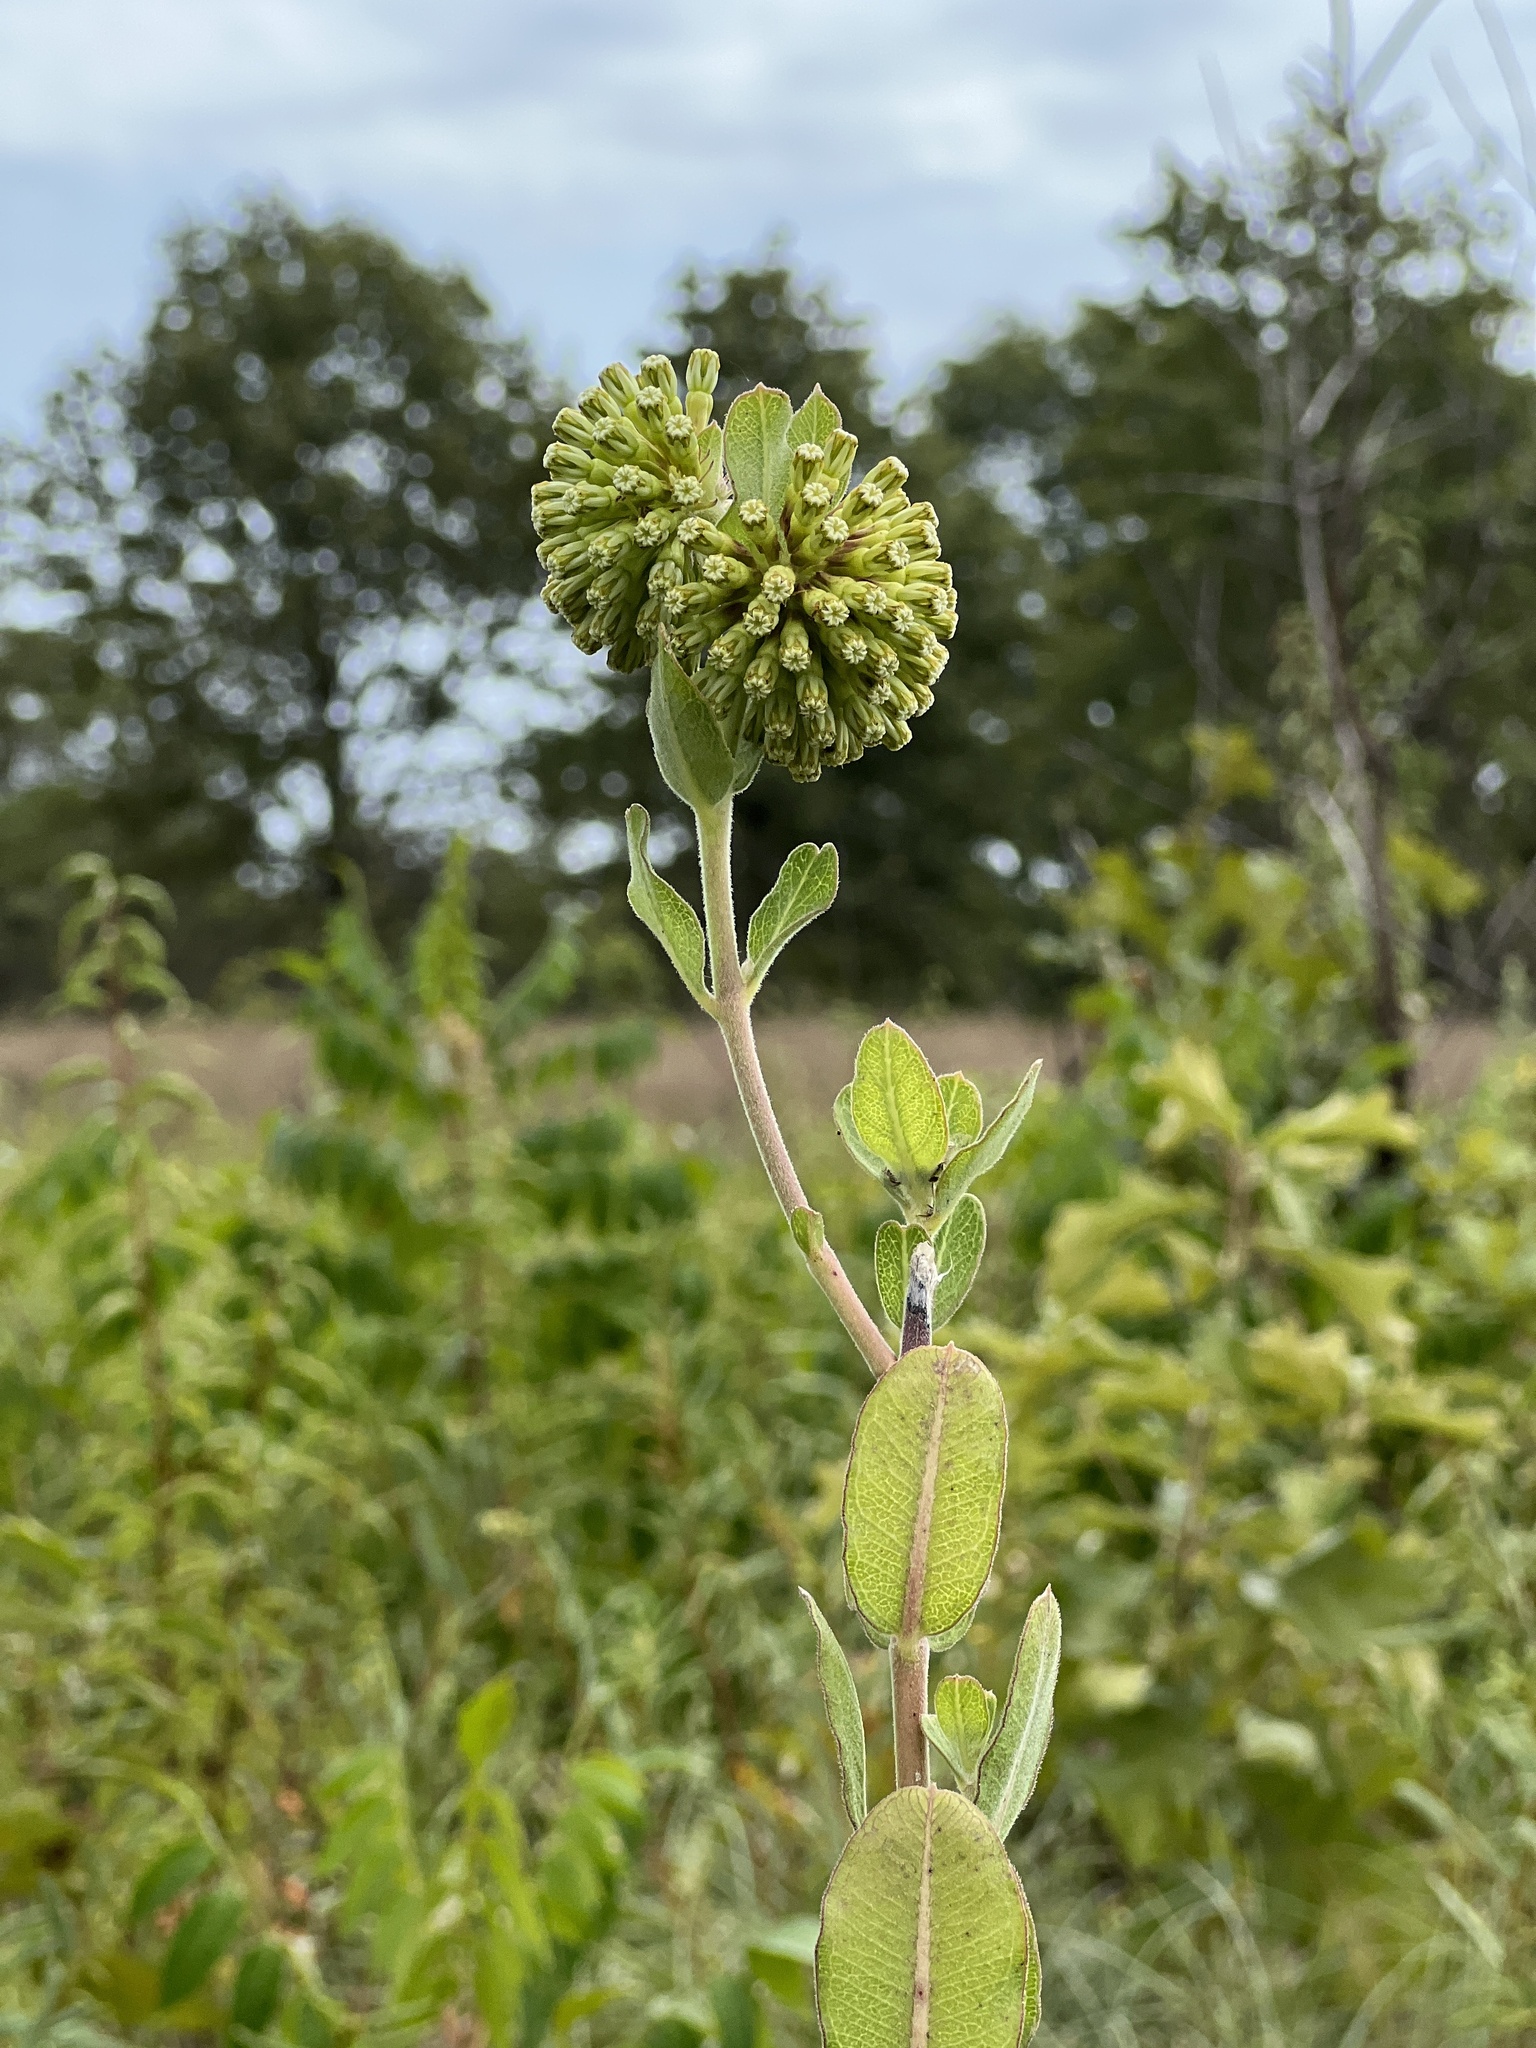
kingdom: Plantae
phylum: Tracheophyta
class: Magnoliopsida
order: Gentianales
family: Apocynaceae
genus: Asclepias
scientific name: Asclepias viridiflora
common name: Green comet milkweed
